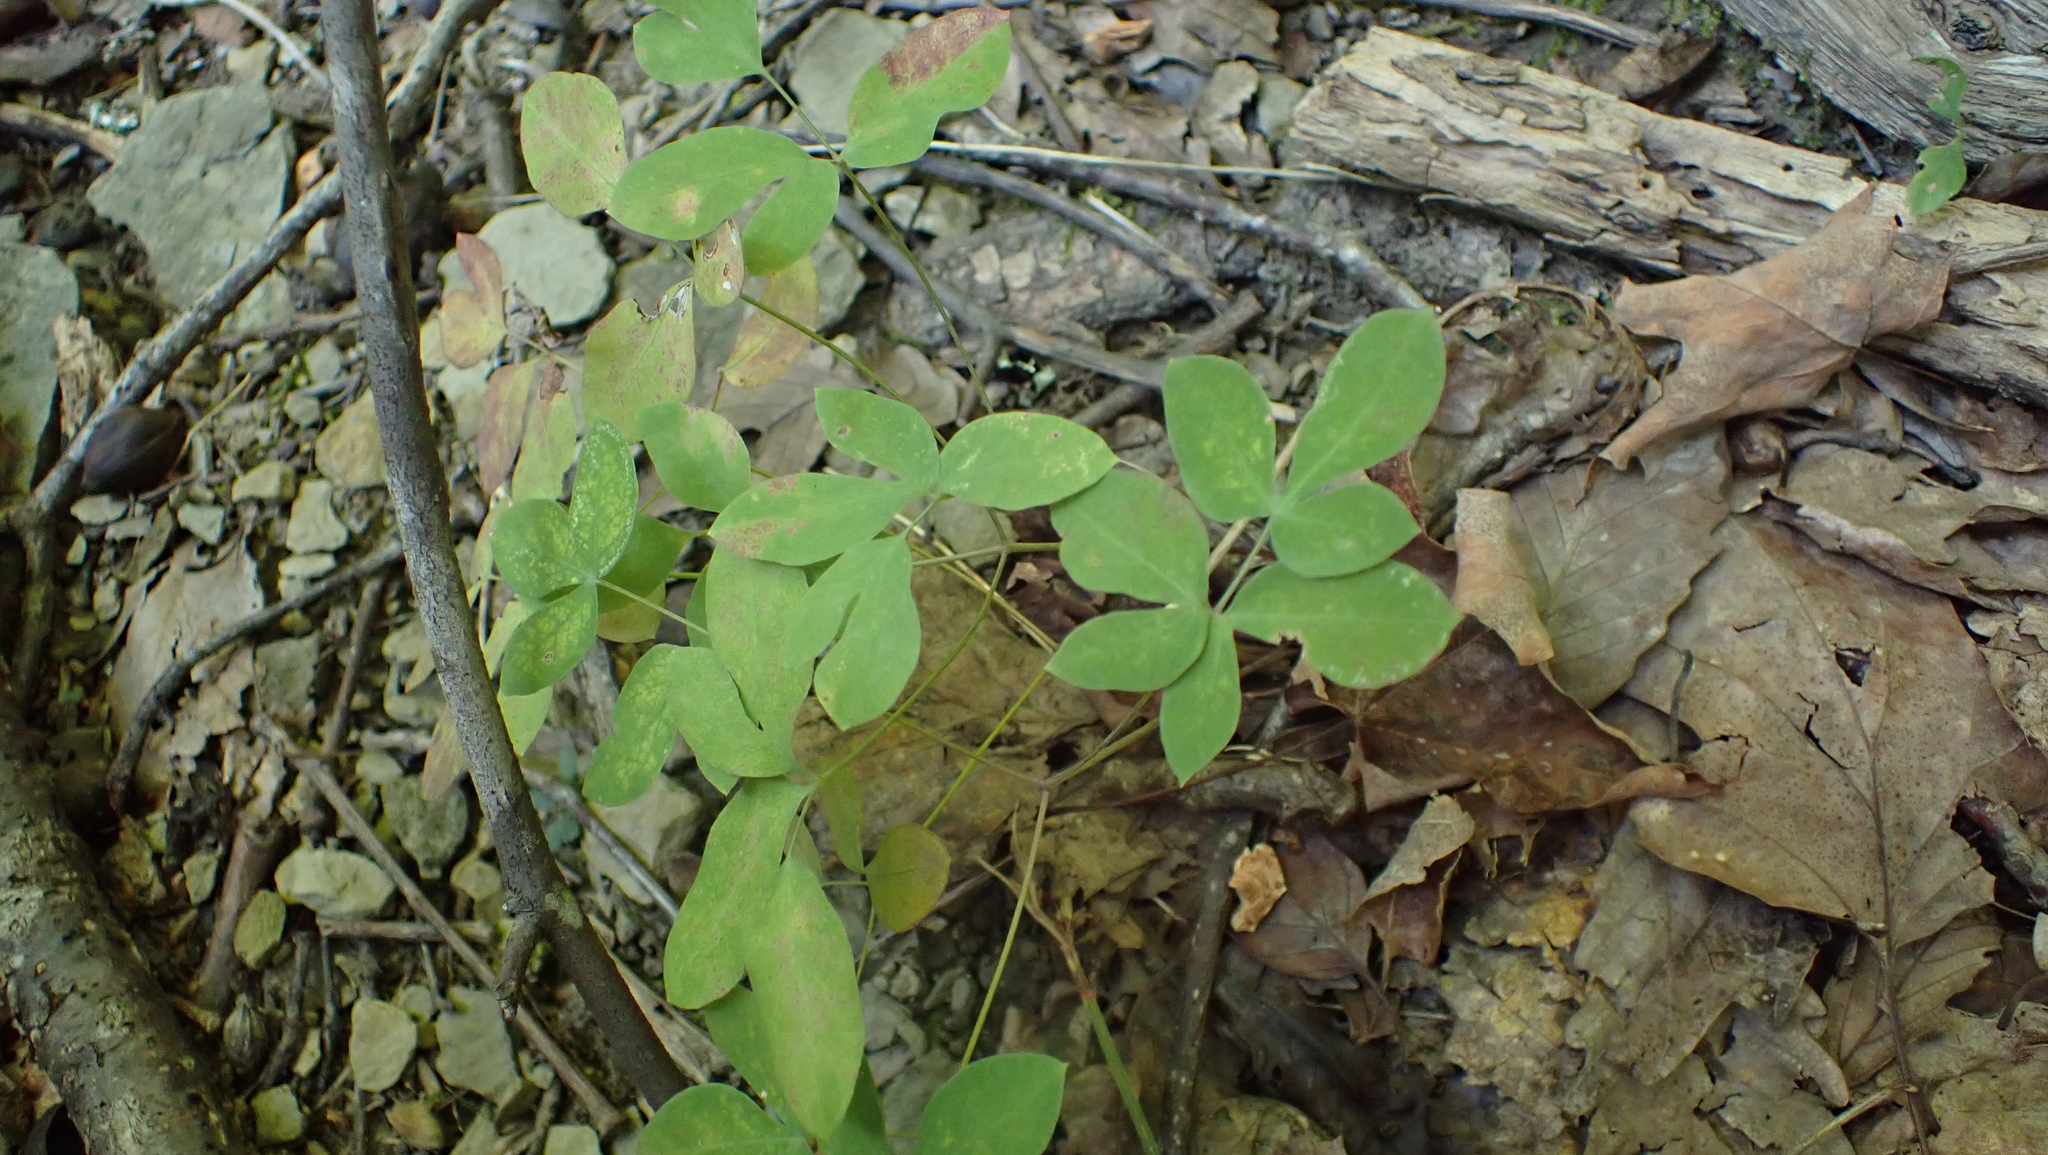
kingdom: Plantae
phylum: Tracheophyta
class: Magnoliopsida
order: Apiales
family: Apiaceae
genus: Taenidia
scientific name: Taenidia integerrima
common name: Golden alexander
